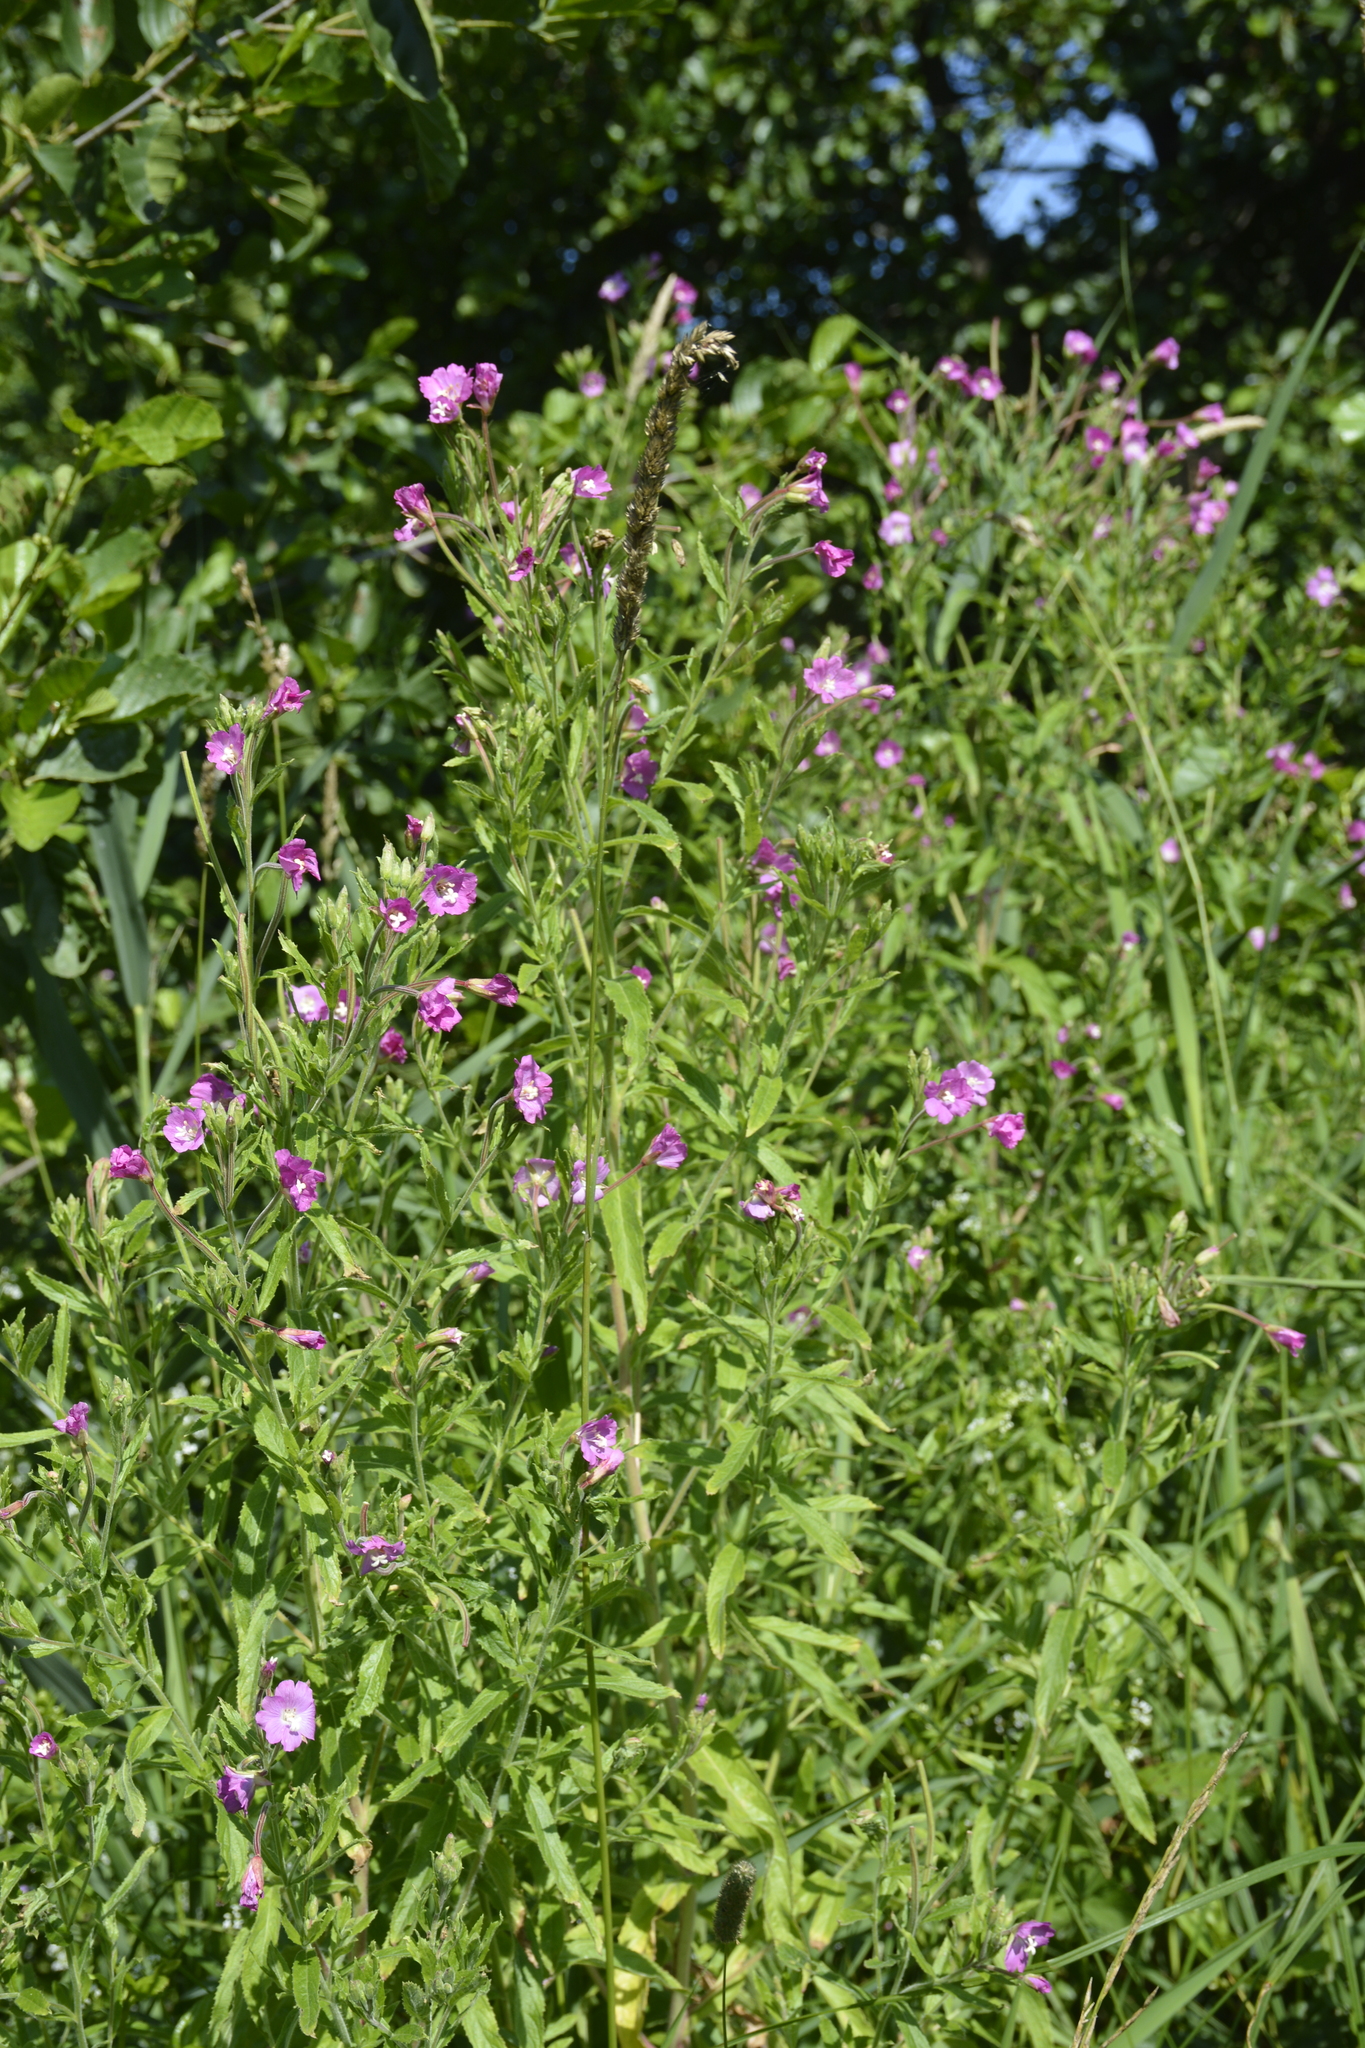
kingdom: Plantae
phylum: Tracheophyta
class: Magnoliopsida
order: Myrtales
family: Onagraceae
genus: Epilobium
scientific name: Epilobium hirsutum
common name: Great willowherb
